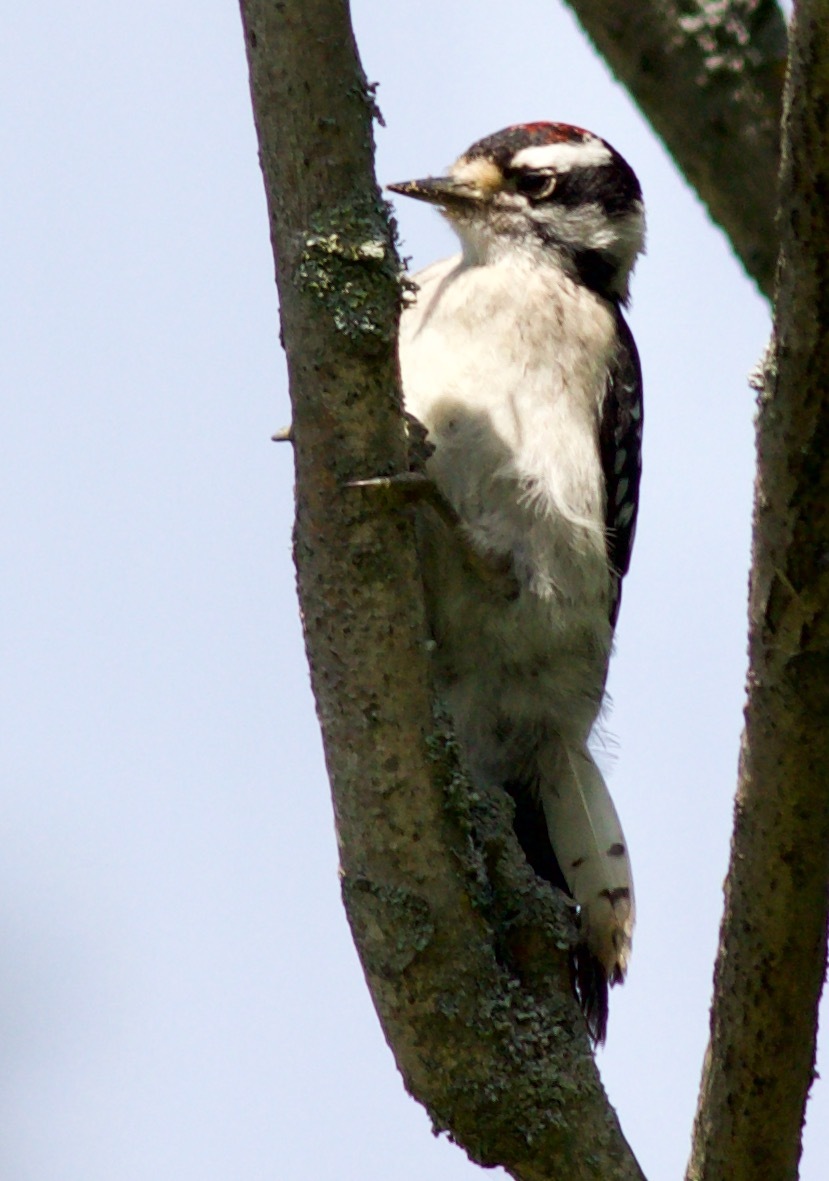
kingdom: Animalia
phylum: Chordata
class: Aves
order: Piciformes
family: Picidae
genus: Dryobates
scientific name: Dryobates pubescens
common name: Downy woodpecker
